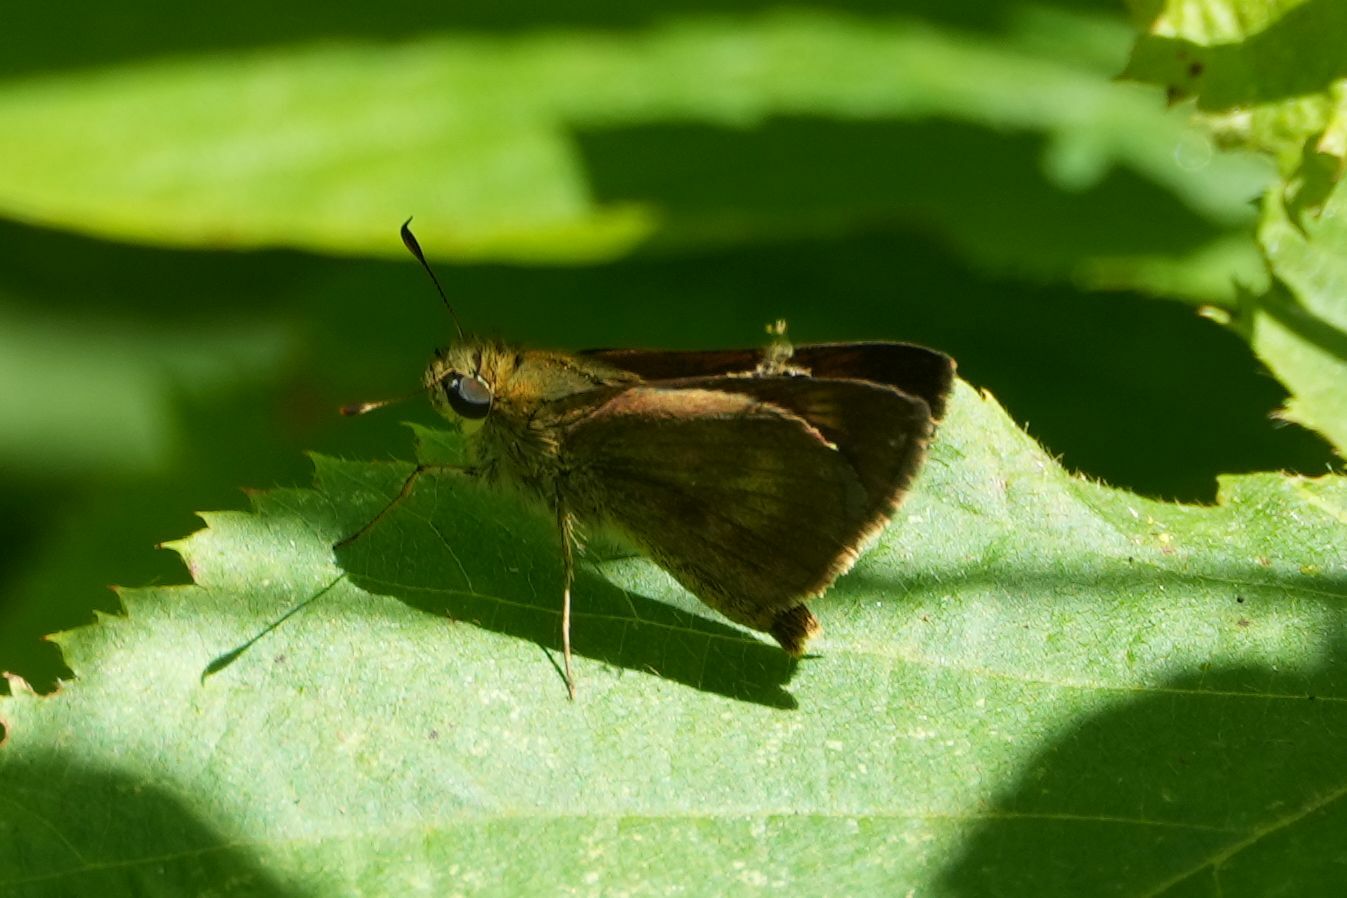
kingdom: Animalia
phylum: Arthropoda
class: Insecta
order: Lepidoptera
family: Hesperiidae
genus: Polites
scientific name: Polites egeremet
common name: Northern broken-dash
